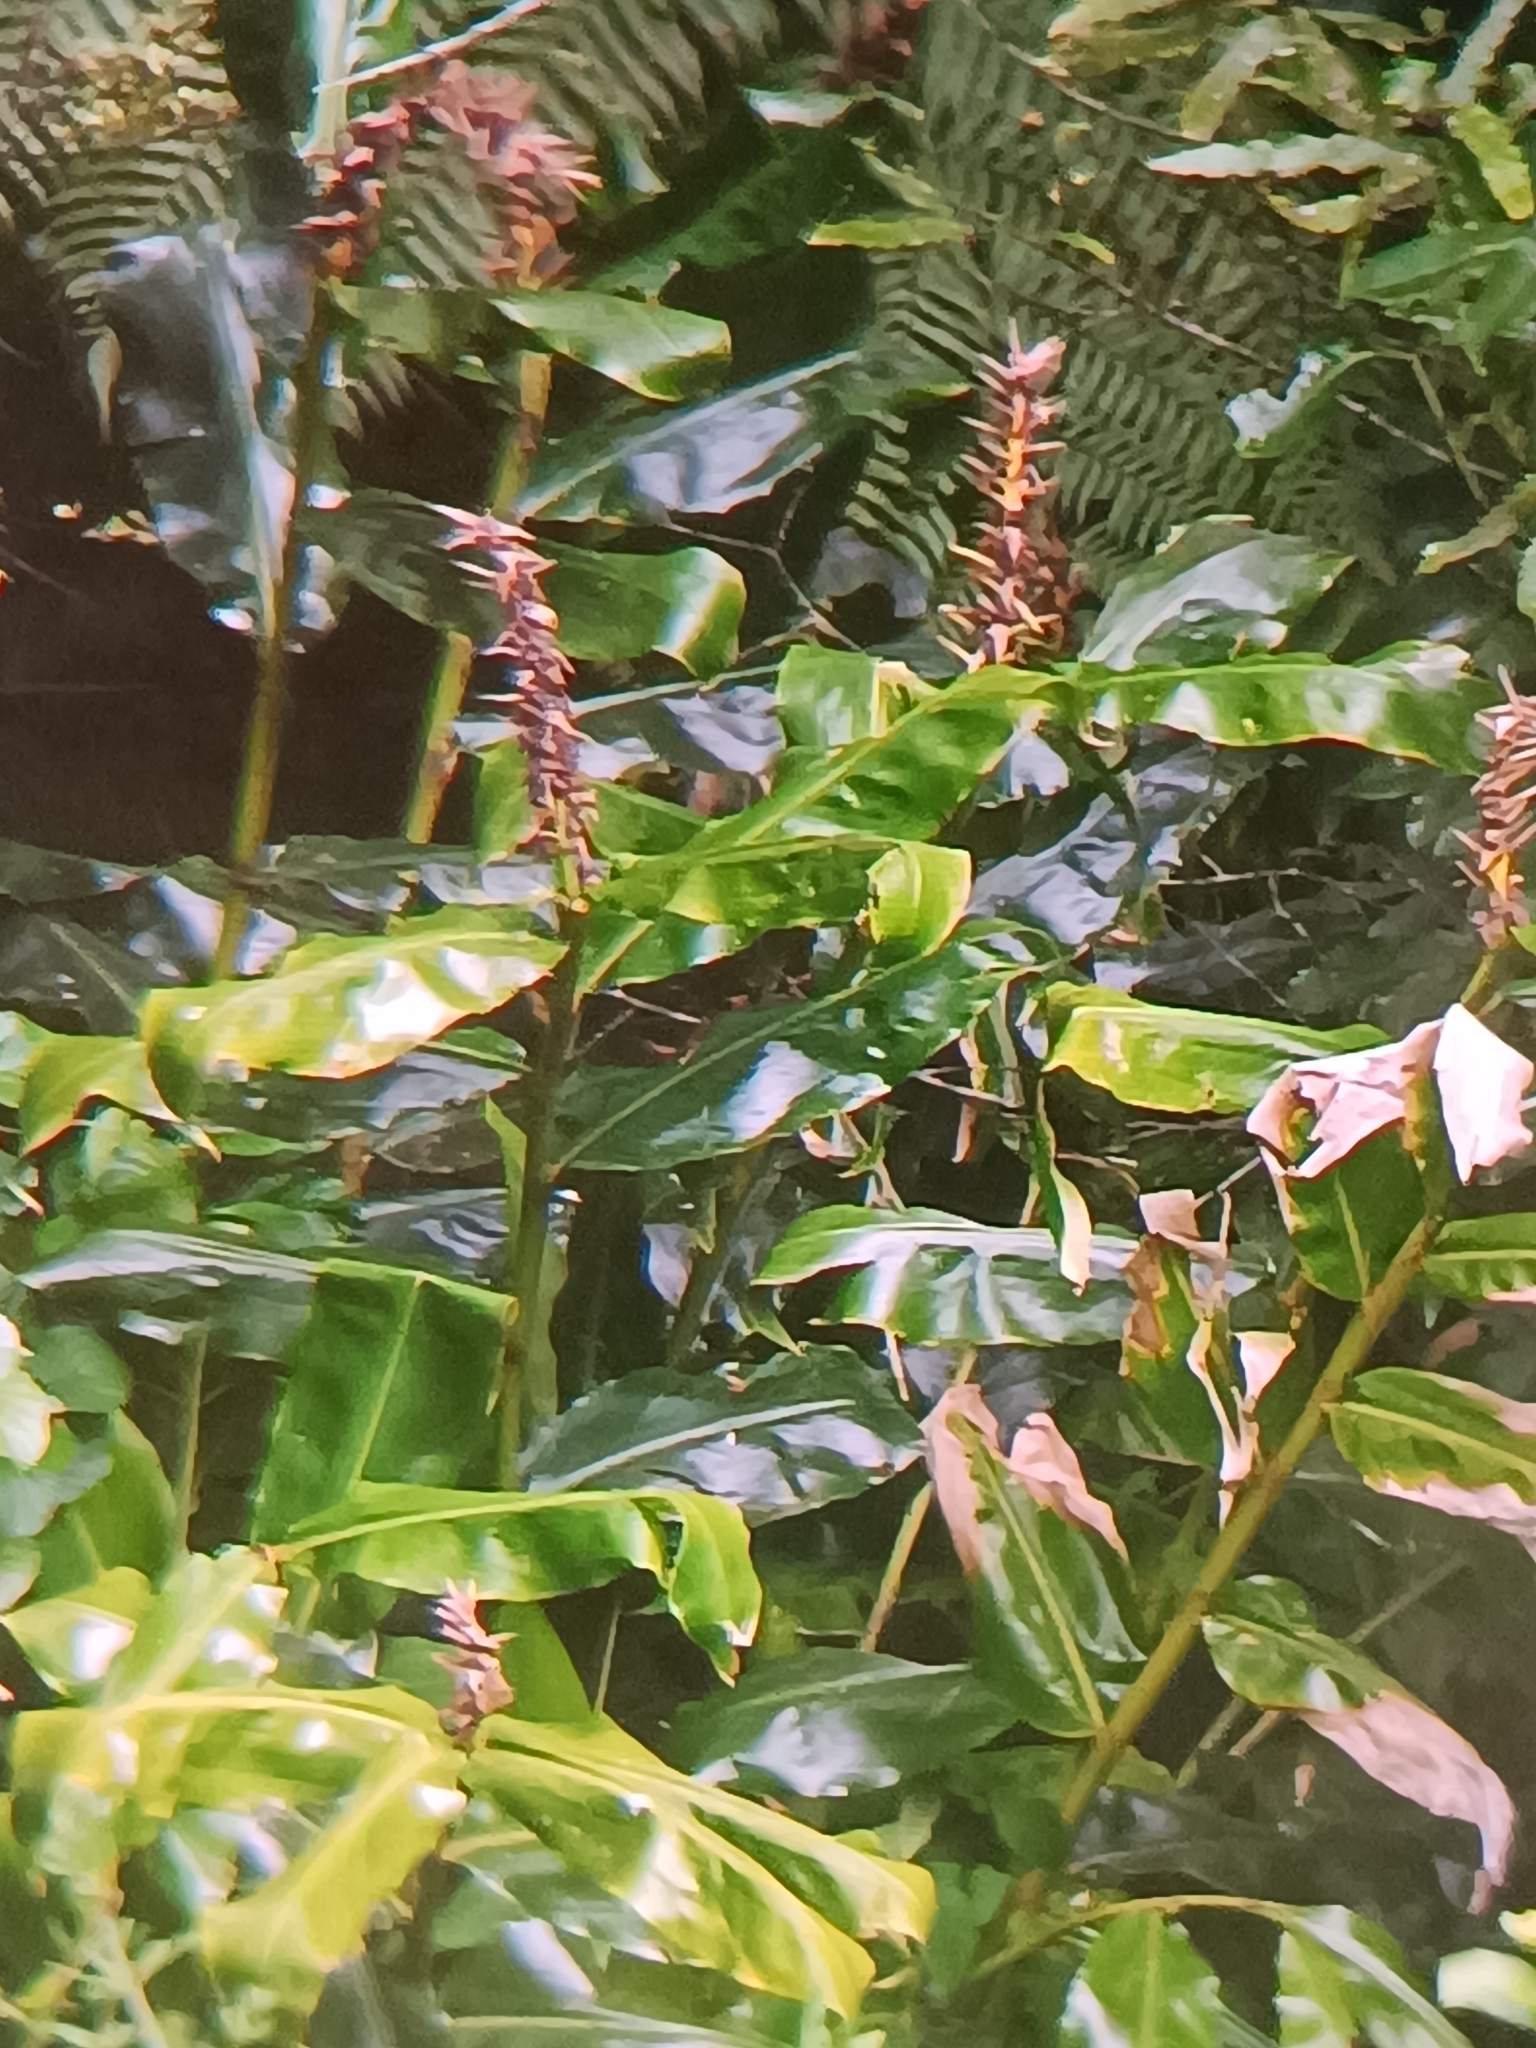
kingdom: Plantae
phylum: Tracheophyta
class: Liliopsida
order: Zingiberales
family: Zingiberaceae
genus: Hedychium
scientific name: Hedychium gardnerianum
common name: Himalayan ginger
